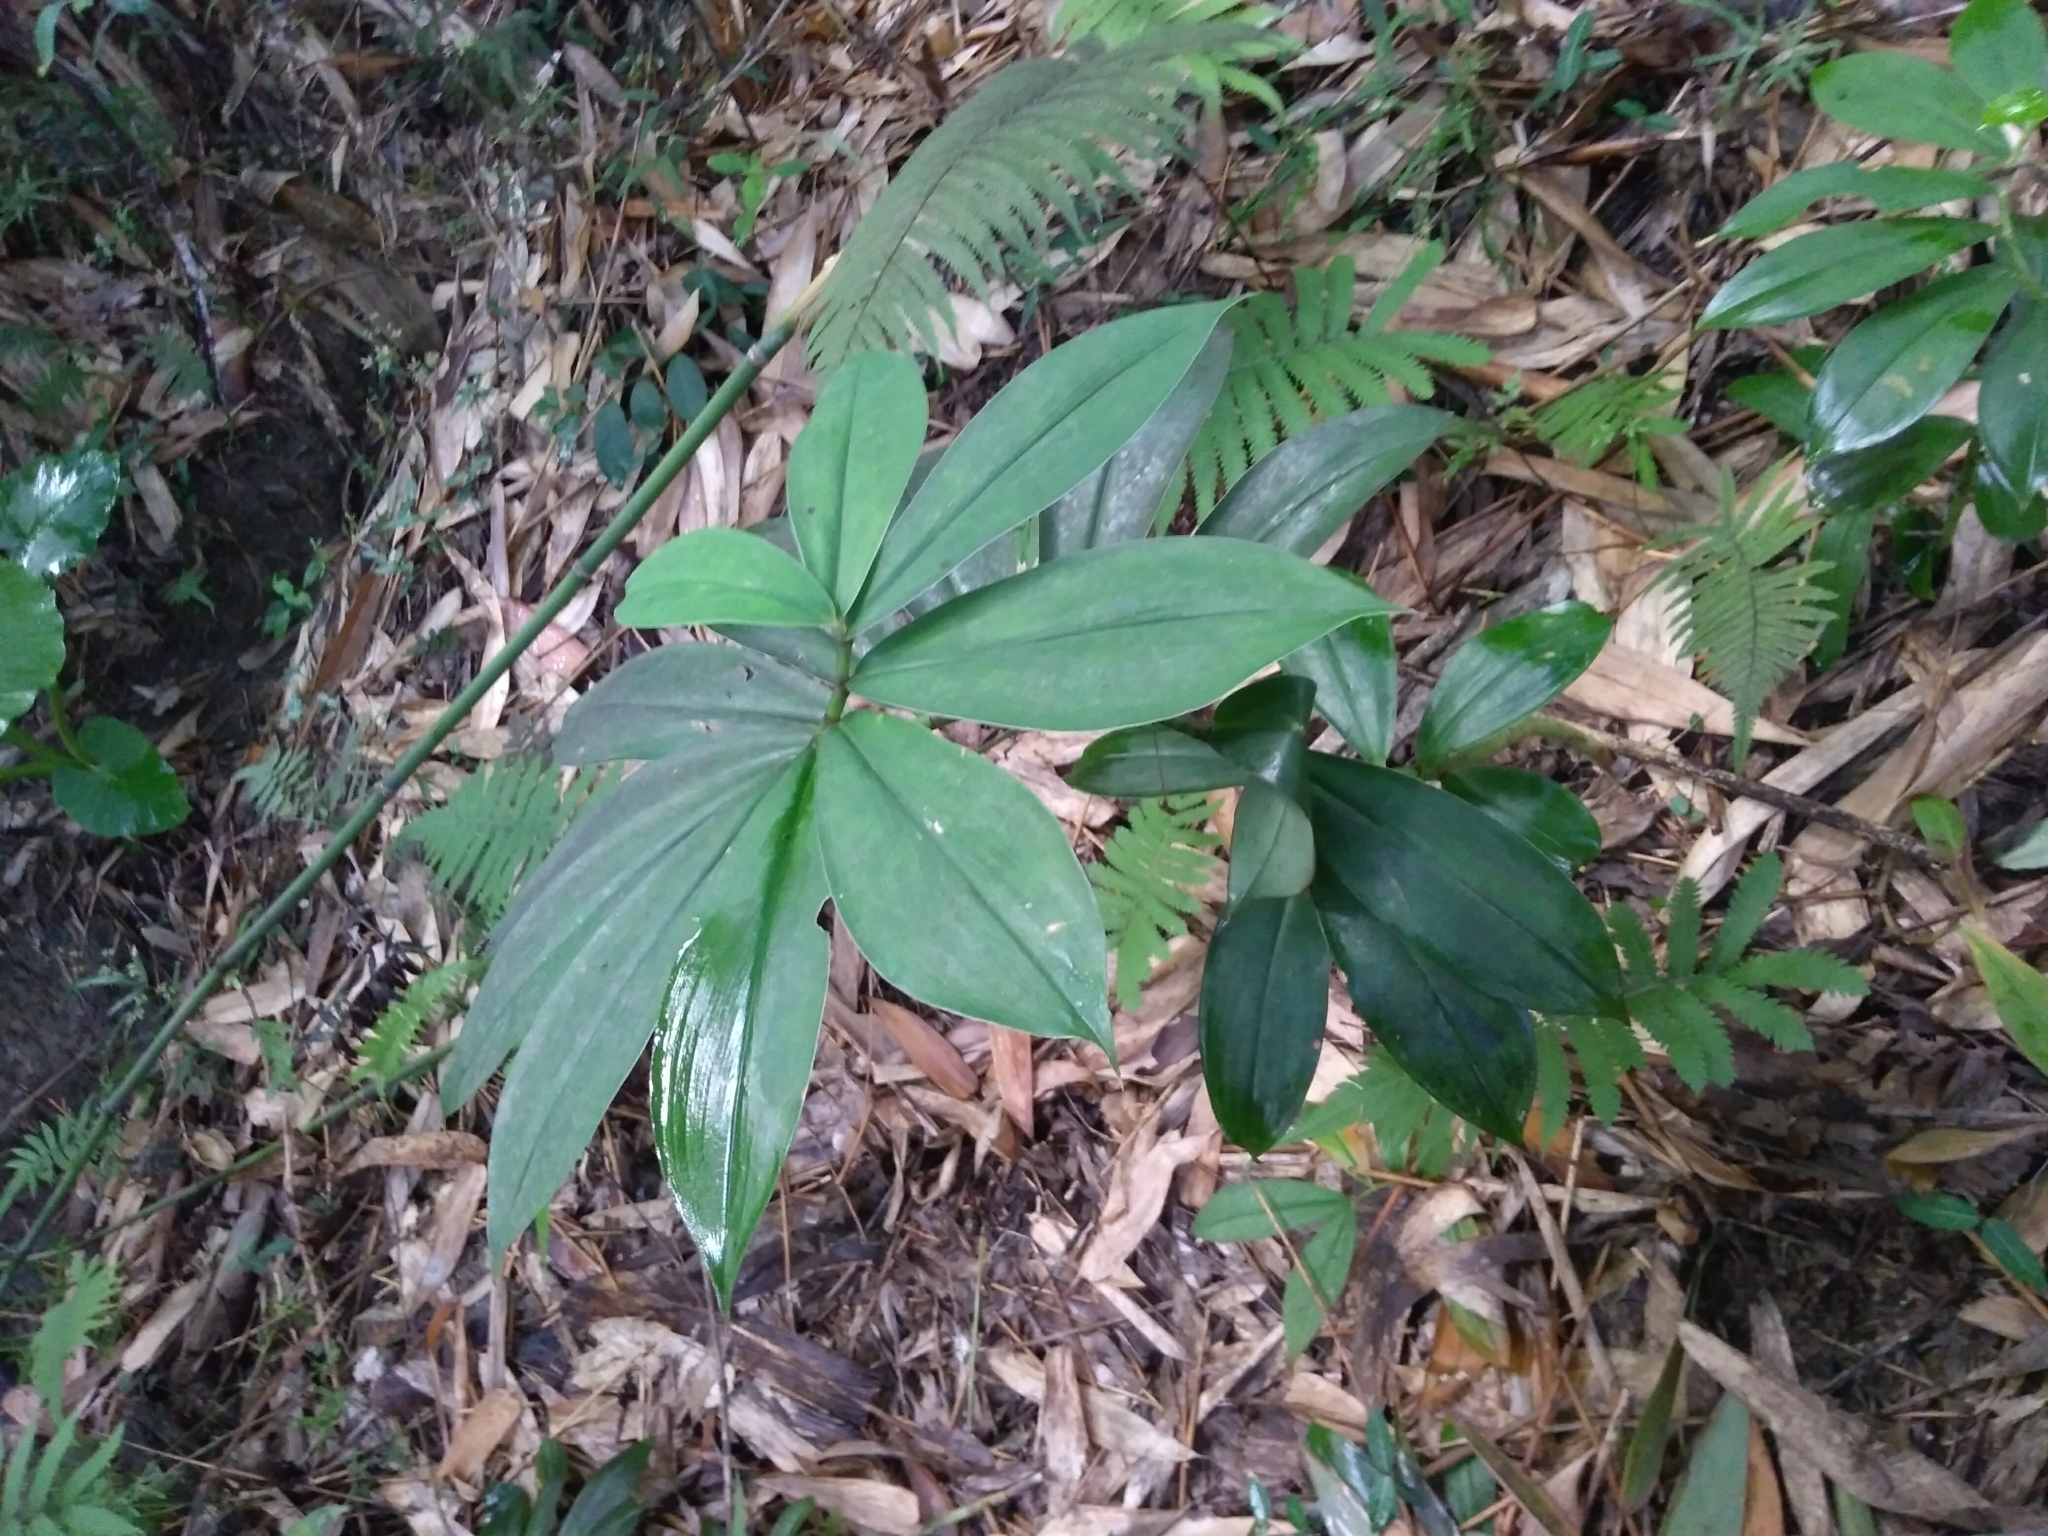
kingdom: Plantae
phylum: Tracheophyta
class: Liliopsida
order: Zingiberales
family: Costaceae
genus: Hellenia
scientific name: Hellenia speciosa
